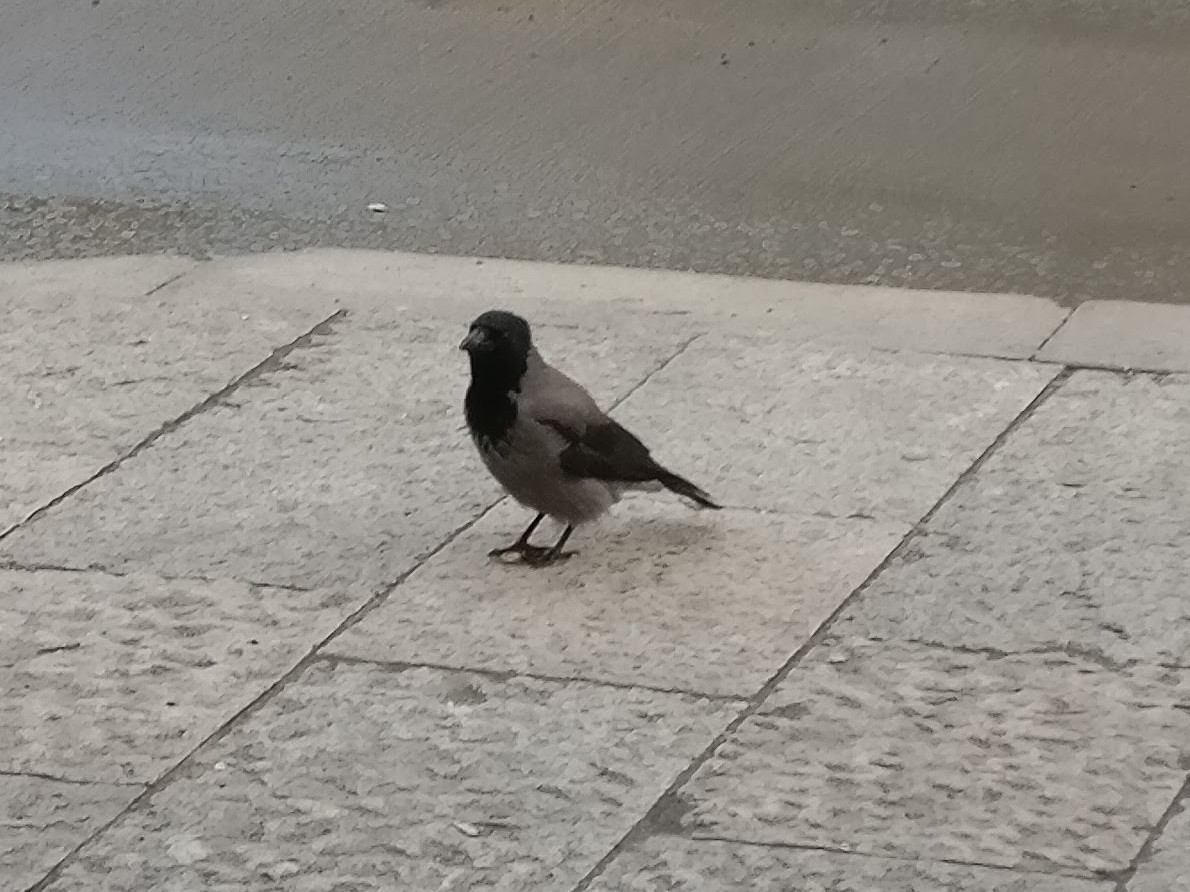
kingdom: Animalia
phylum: Chordata
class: Aves
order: Passeriformes
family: Corvidae
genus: Corvus
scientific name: Corvus cornix
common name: Hooded crow
